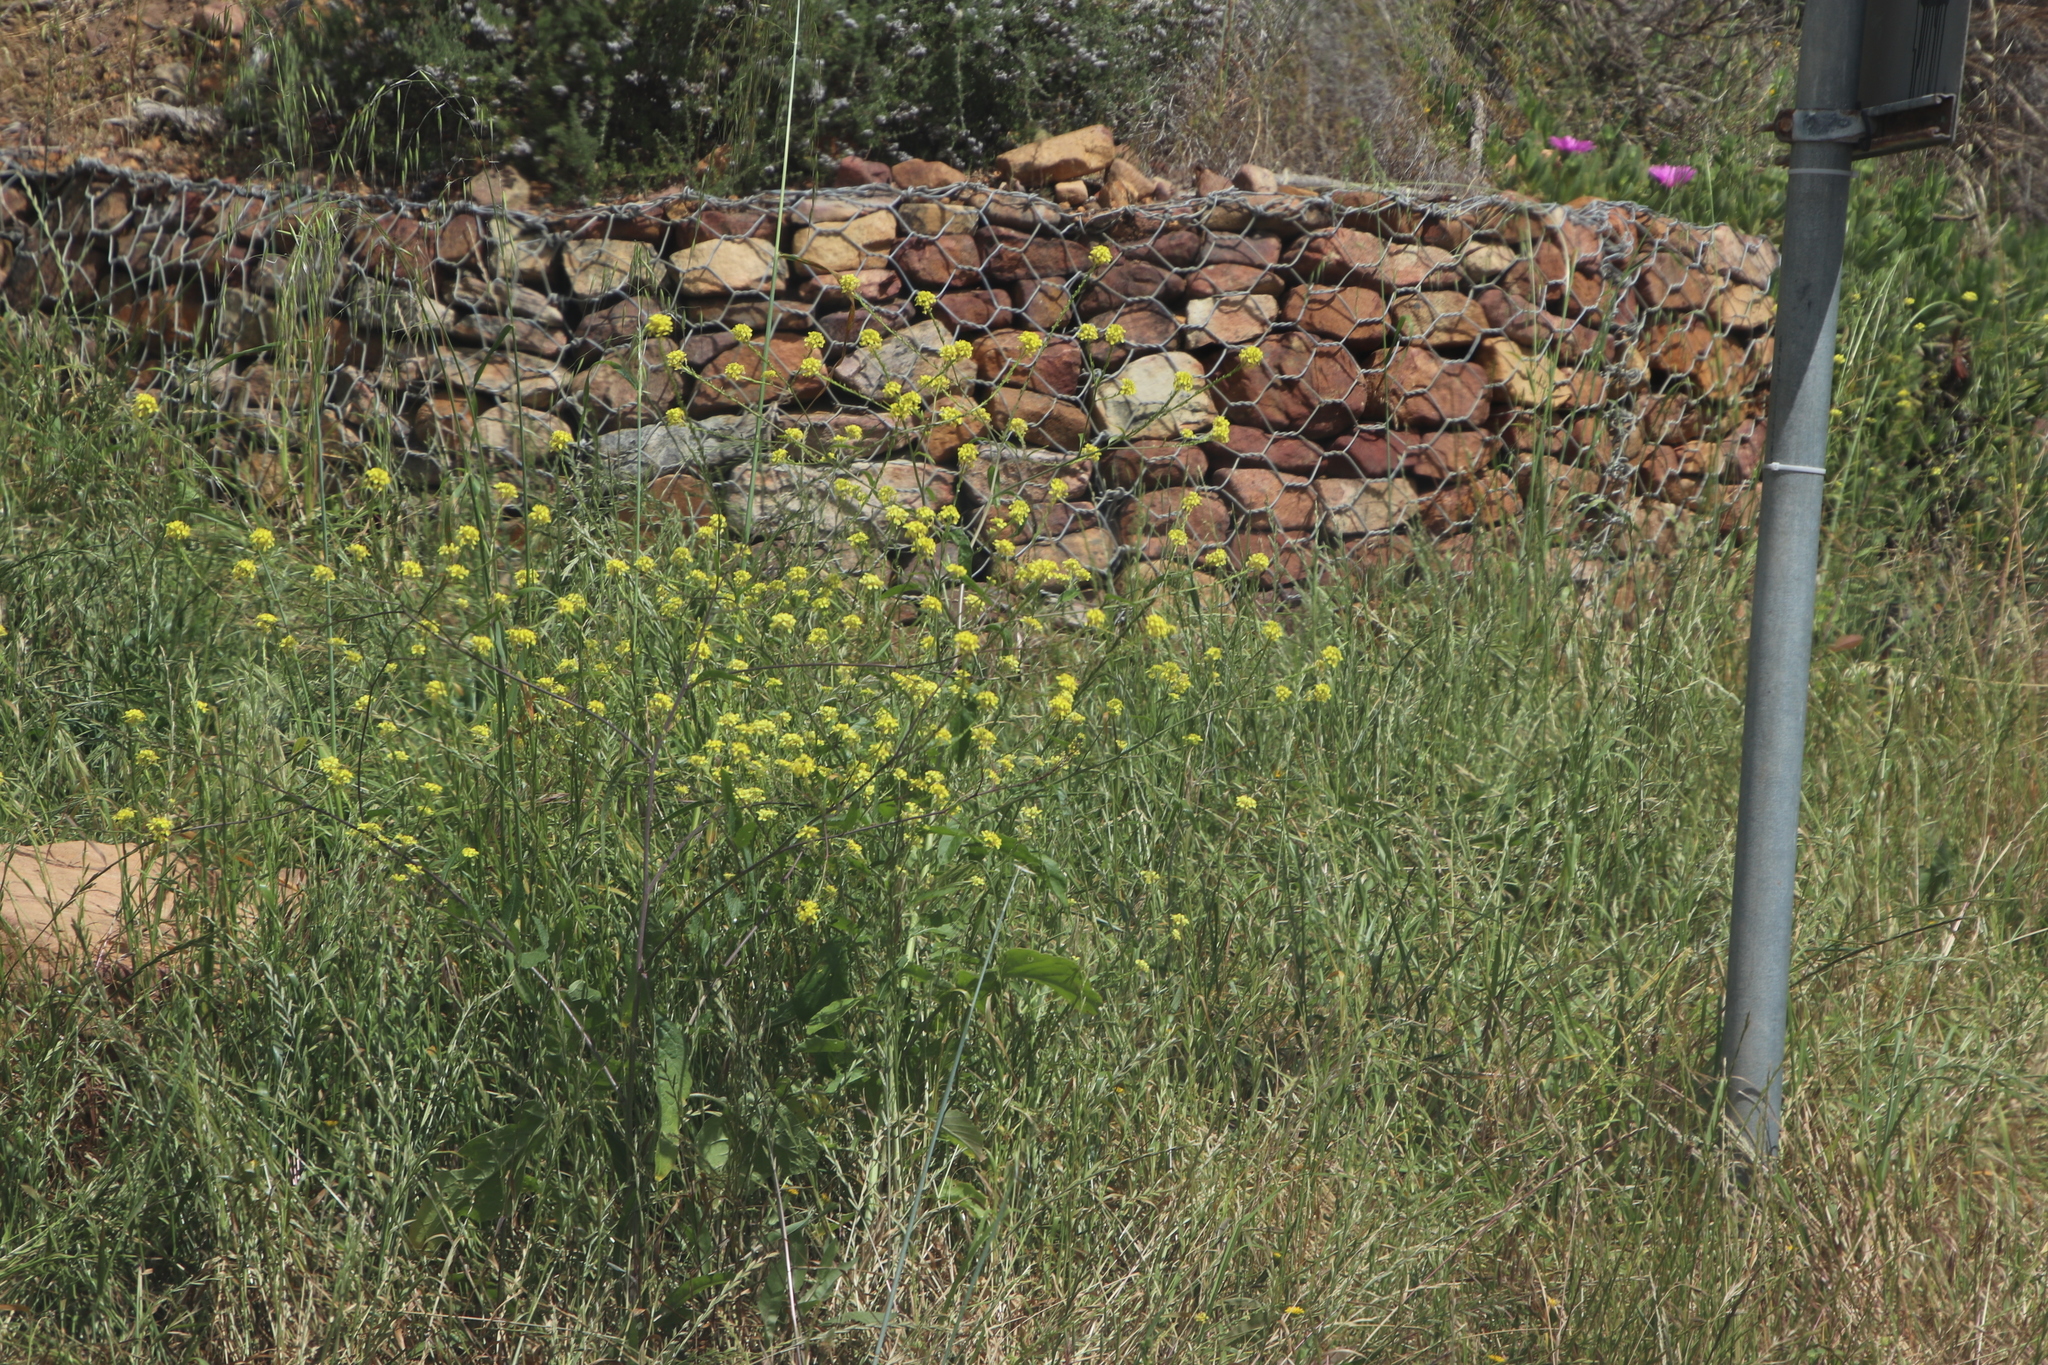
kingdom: Plantae
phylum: Tracheophyta
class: Magnoliopsida
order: Brassicales
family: Brassicaceae
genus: Rapistrum
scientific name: Rapistrum rugosum
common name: Annual bastardcabbage
